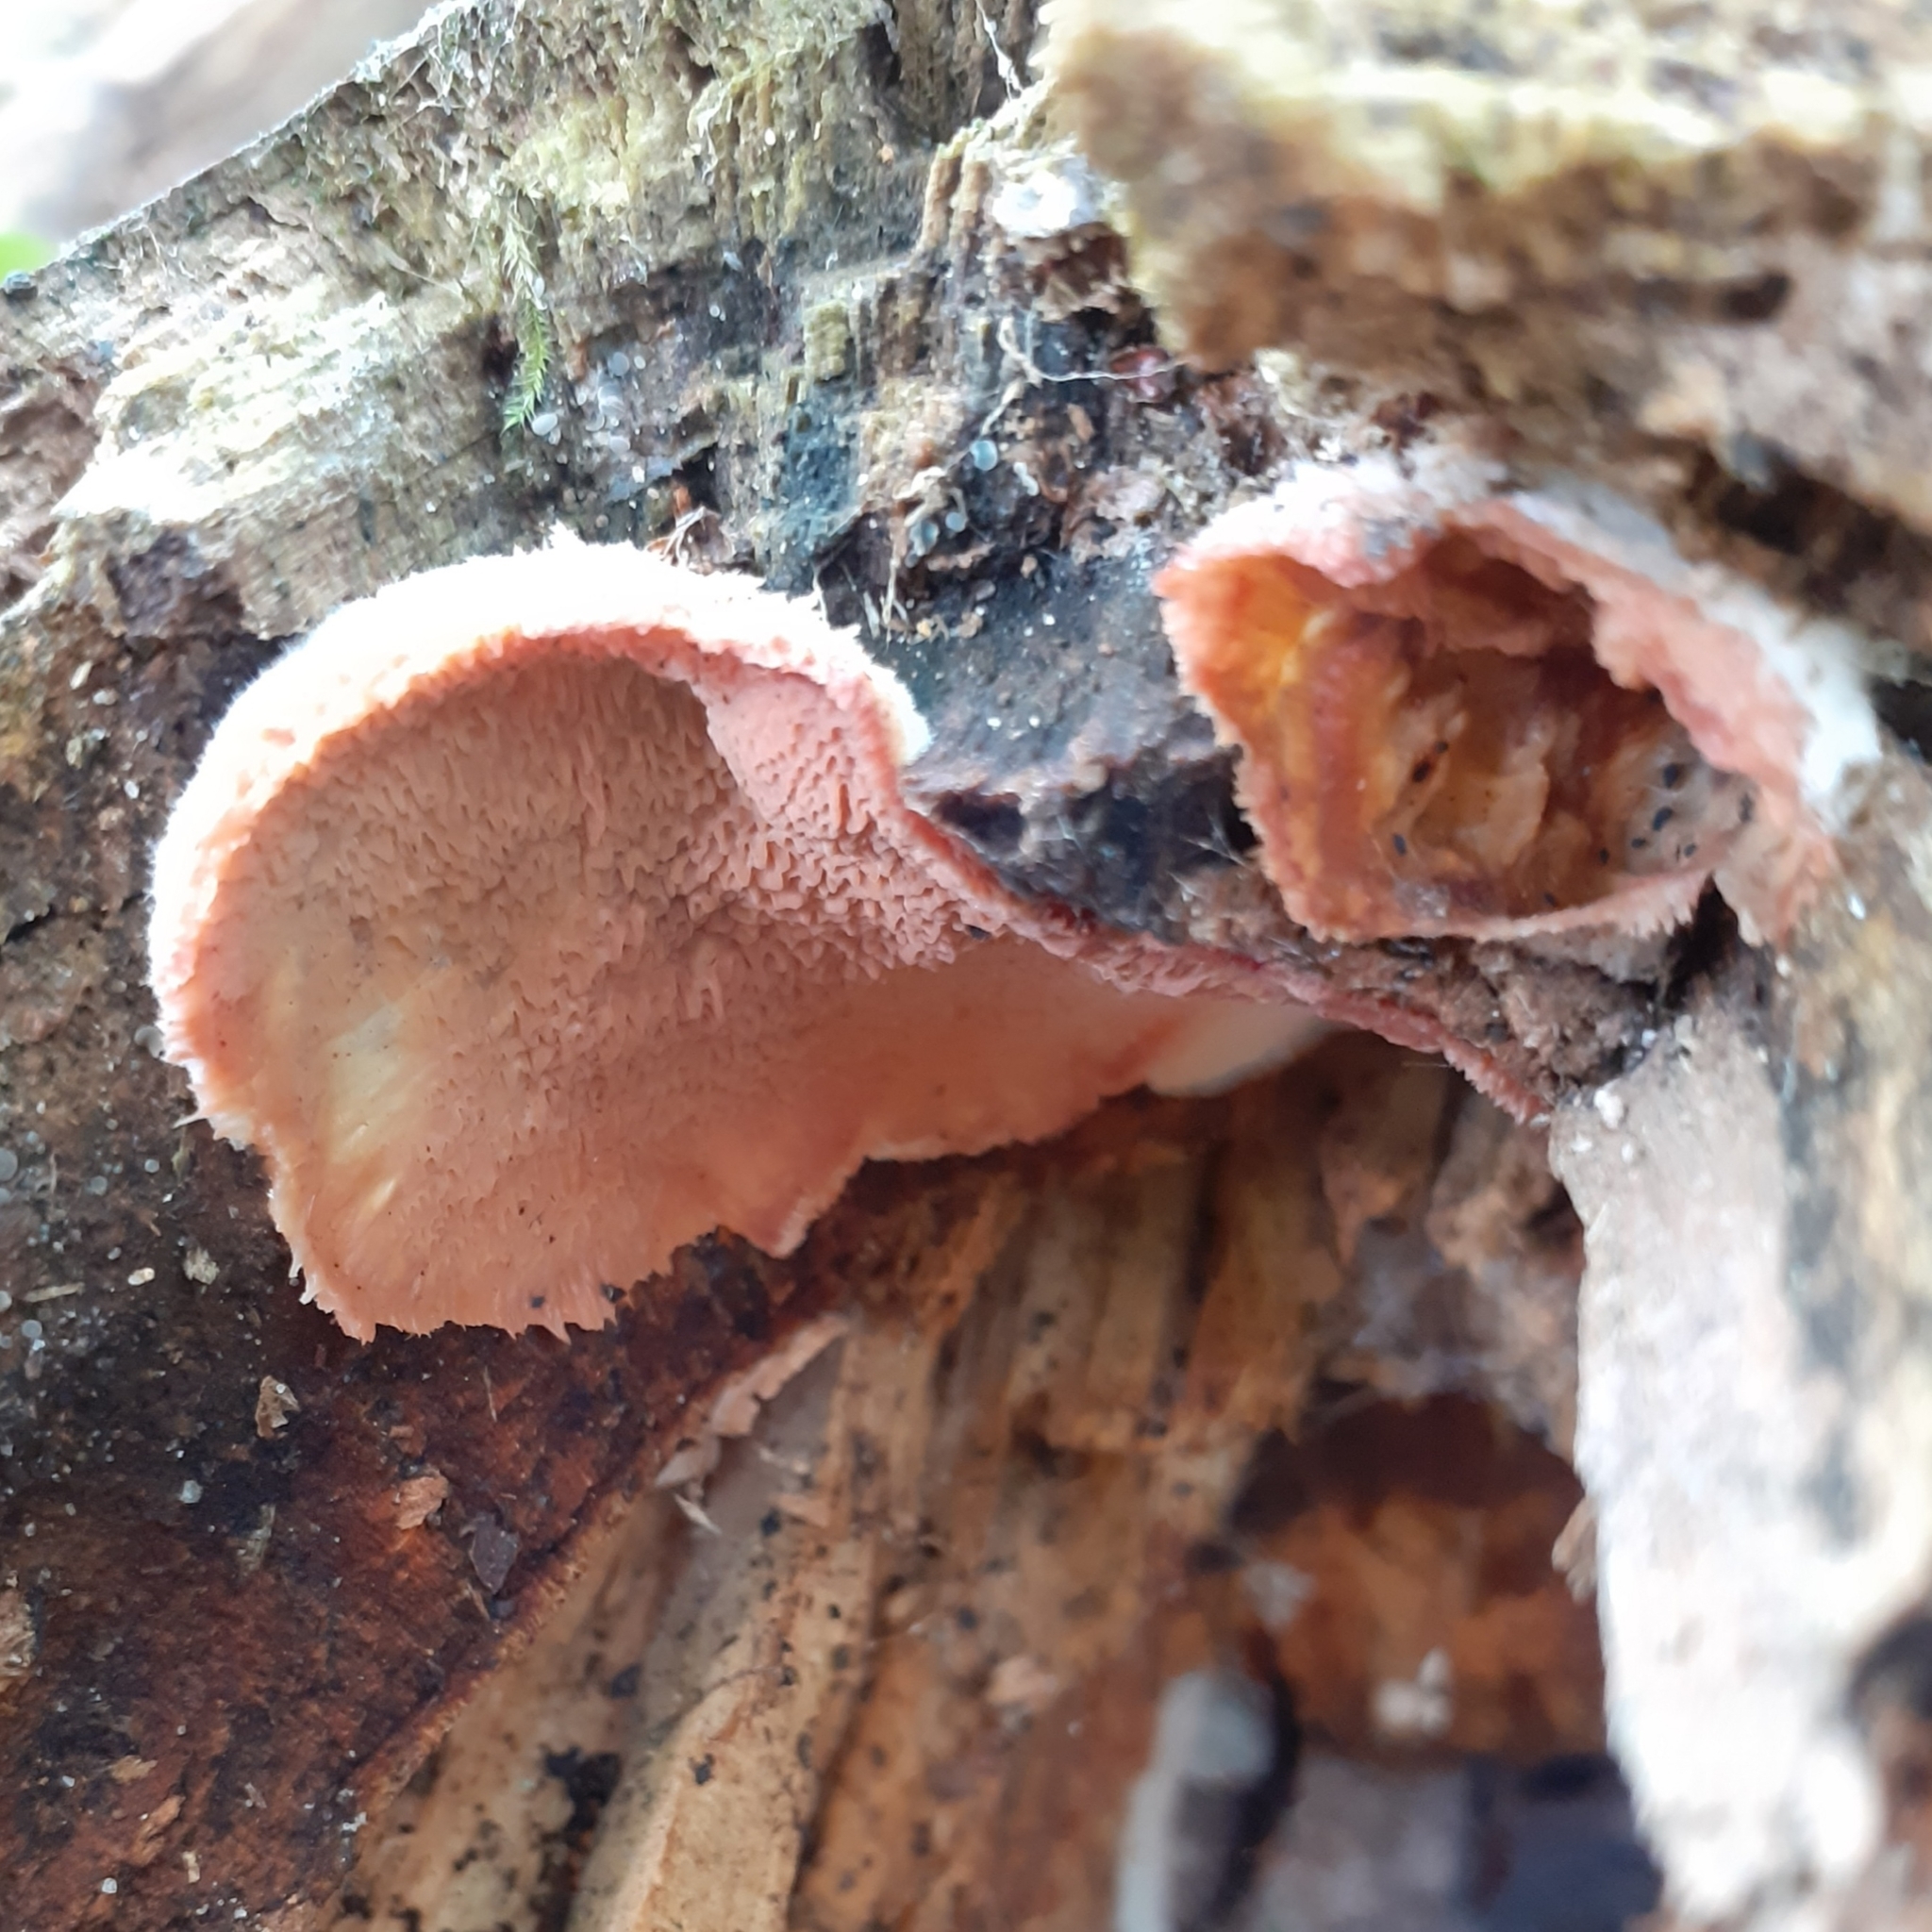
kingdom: Fungi
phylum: Basidiomycota
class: Agaricomycetes
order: Polyporales
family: Meruliaceae
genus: Phlebia
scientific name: Phlebia tremellosa
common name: Jelly rot
